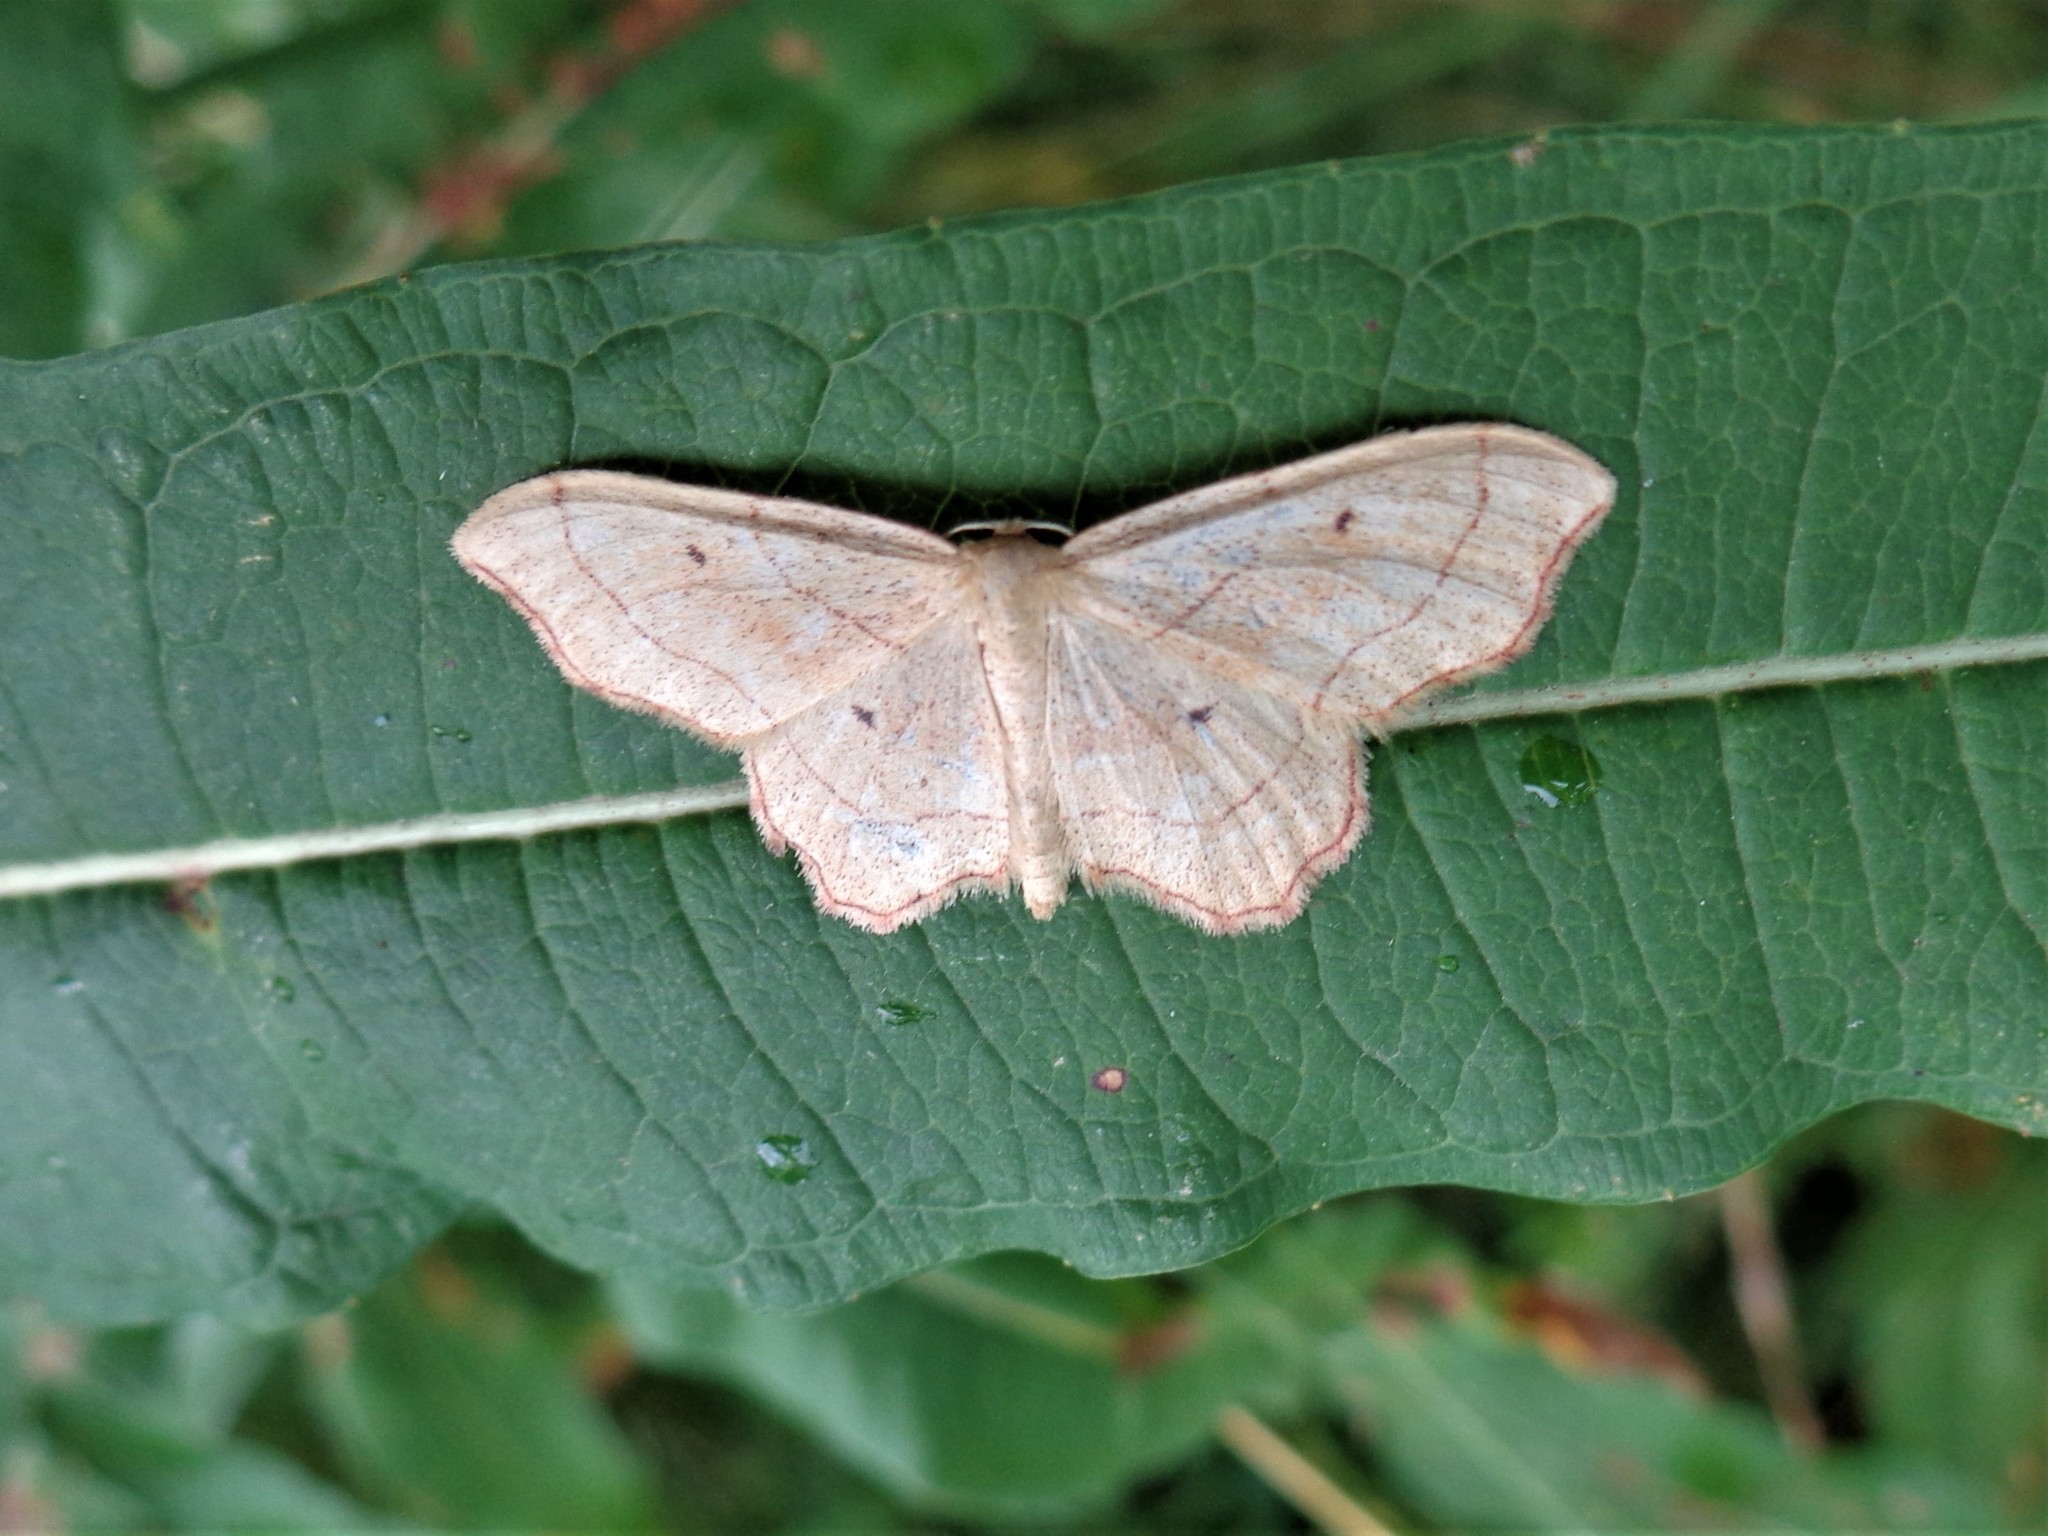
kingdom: Animalia
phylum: Arthropoda
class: Insecta
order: Lepidoptera
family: Geometridae
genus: Idaea
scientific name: Idaea emarginata
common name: Small scallop
